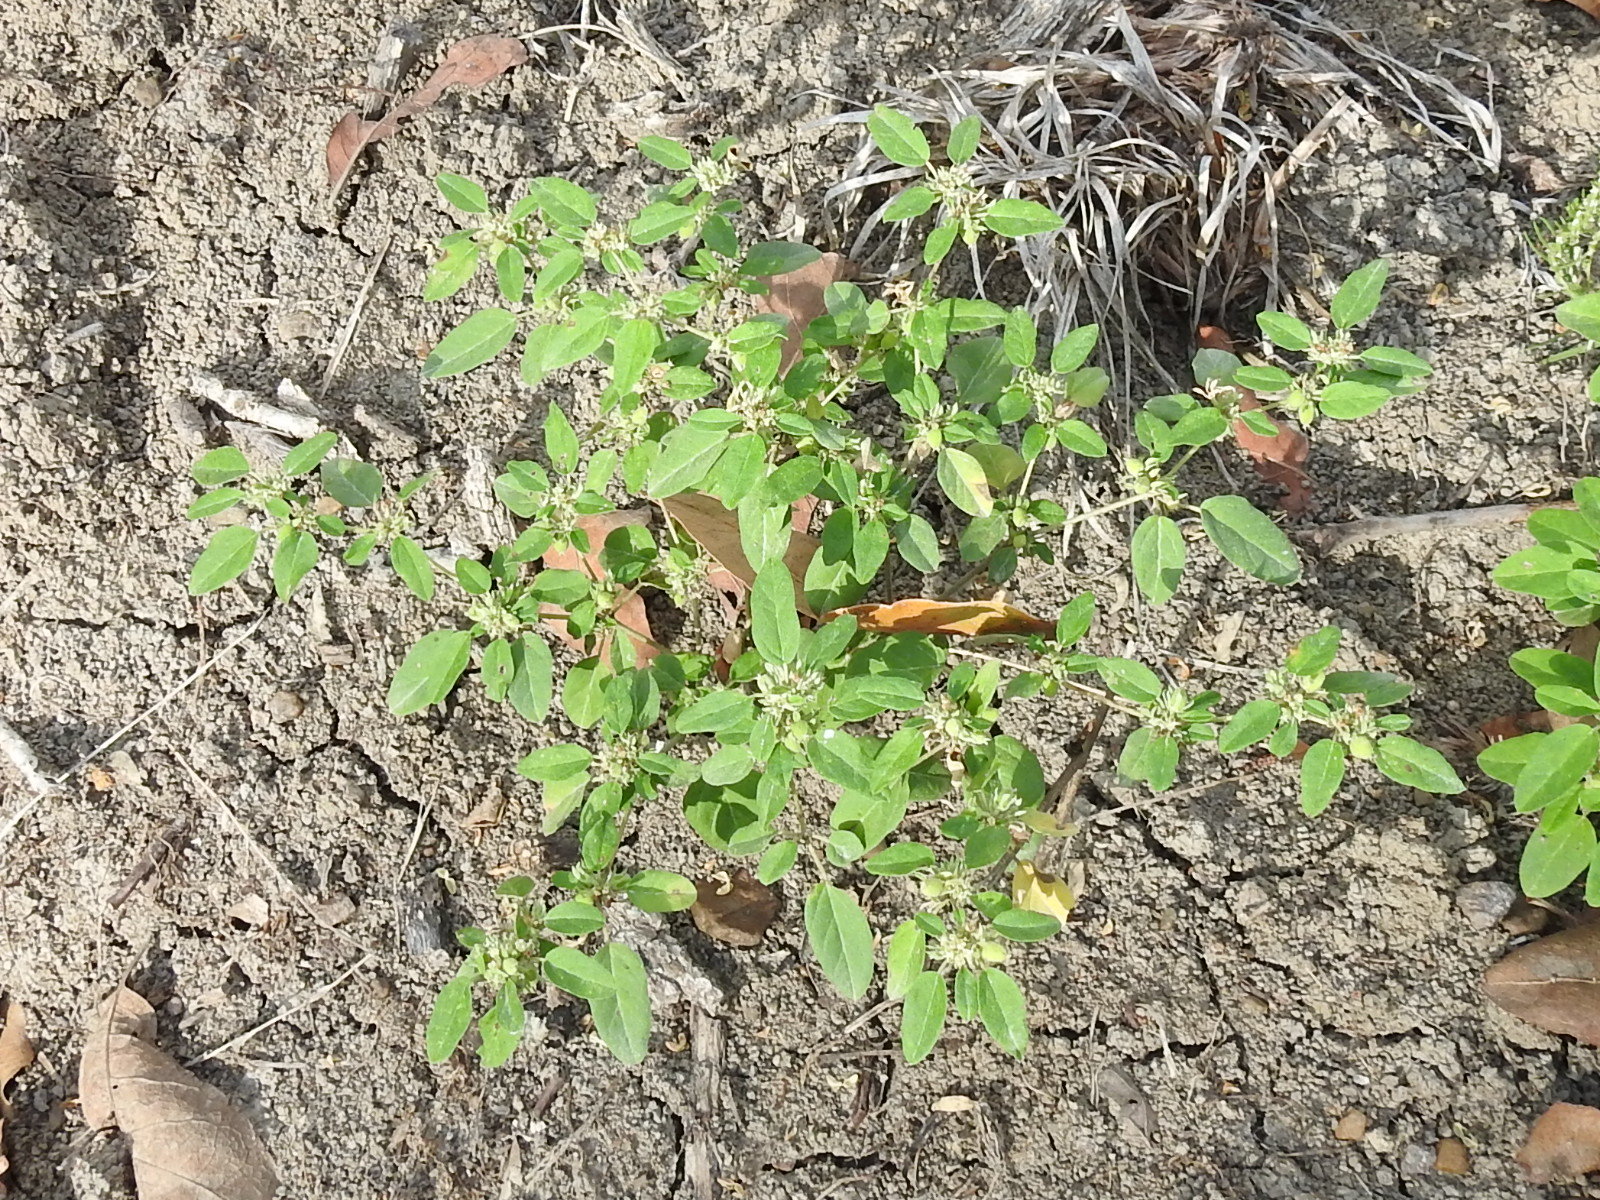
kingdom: Plantae
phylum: Tracheophyta
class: Magnoliopsida
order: Malpighiales
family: Euphorbiaceae
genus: Croton
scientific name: Croton monanthogynus
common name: One-seed croton
